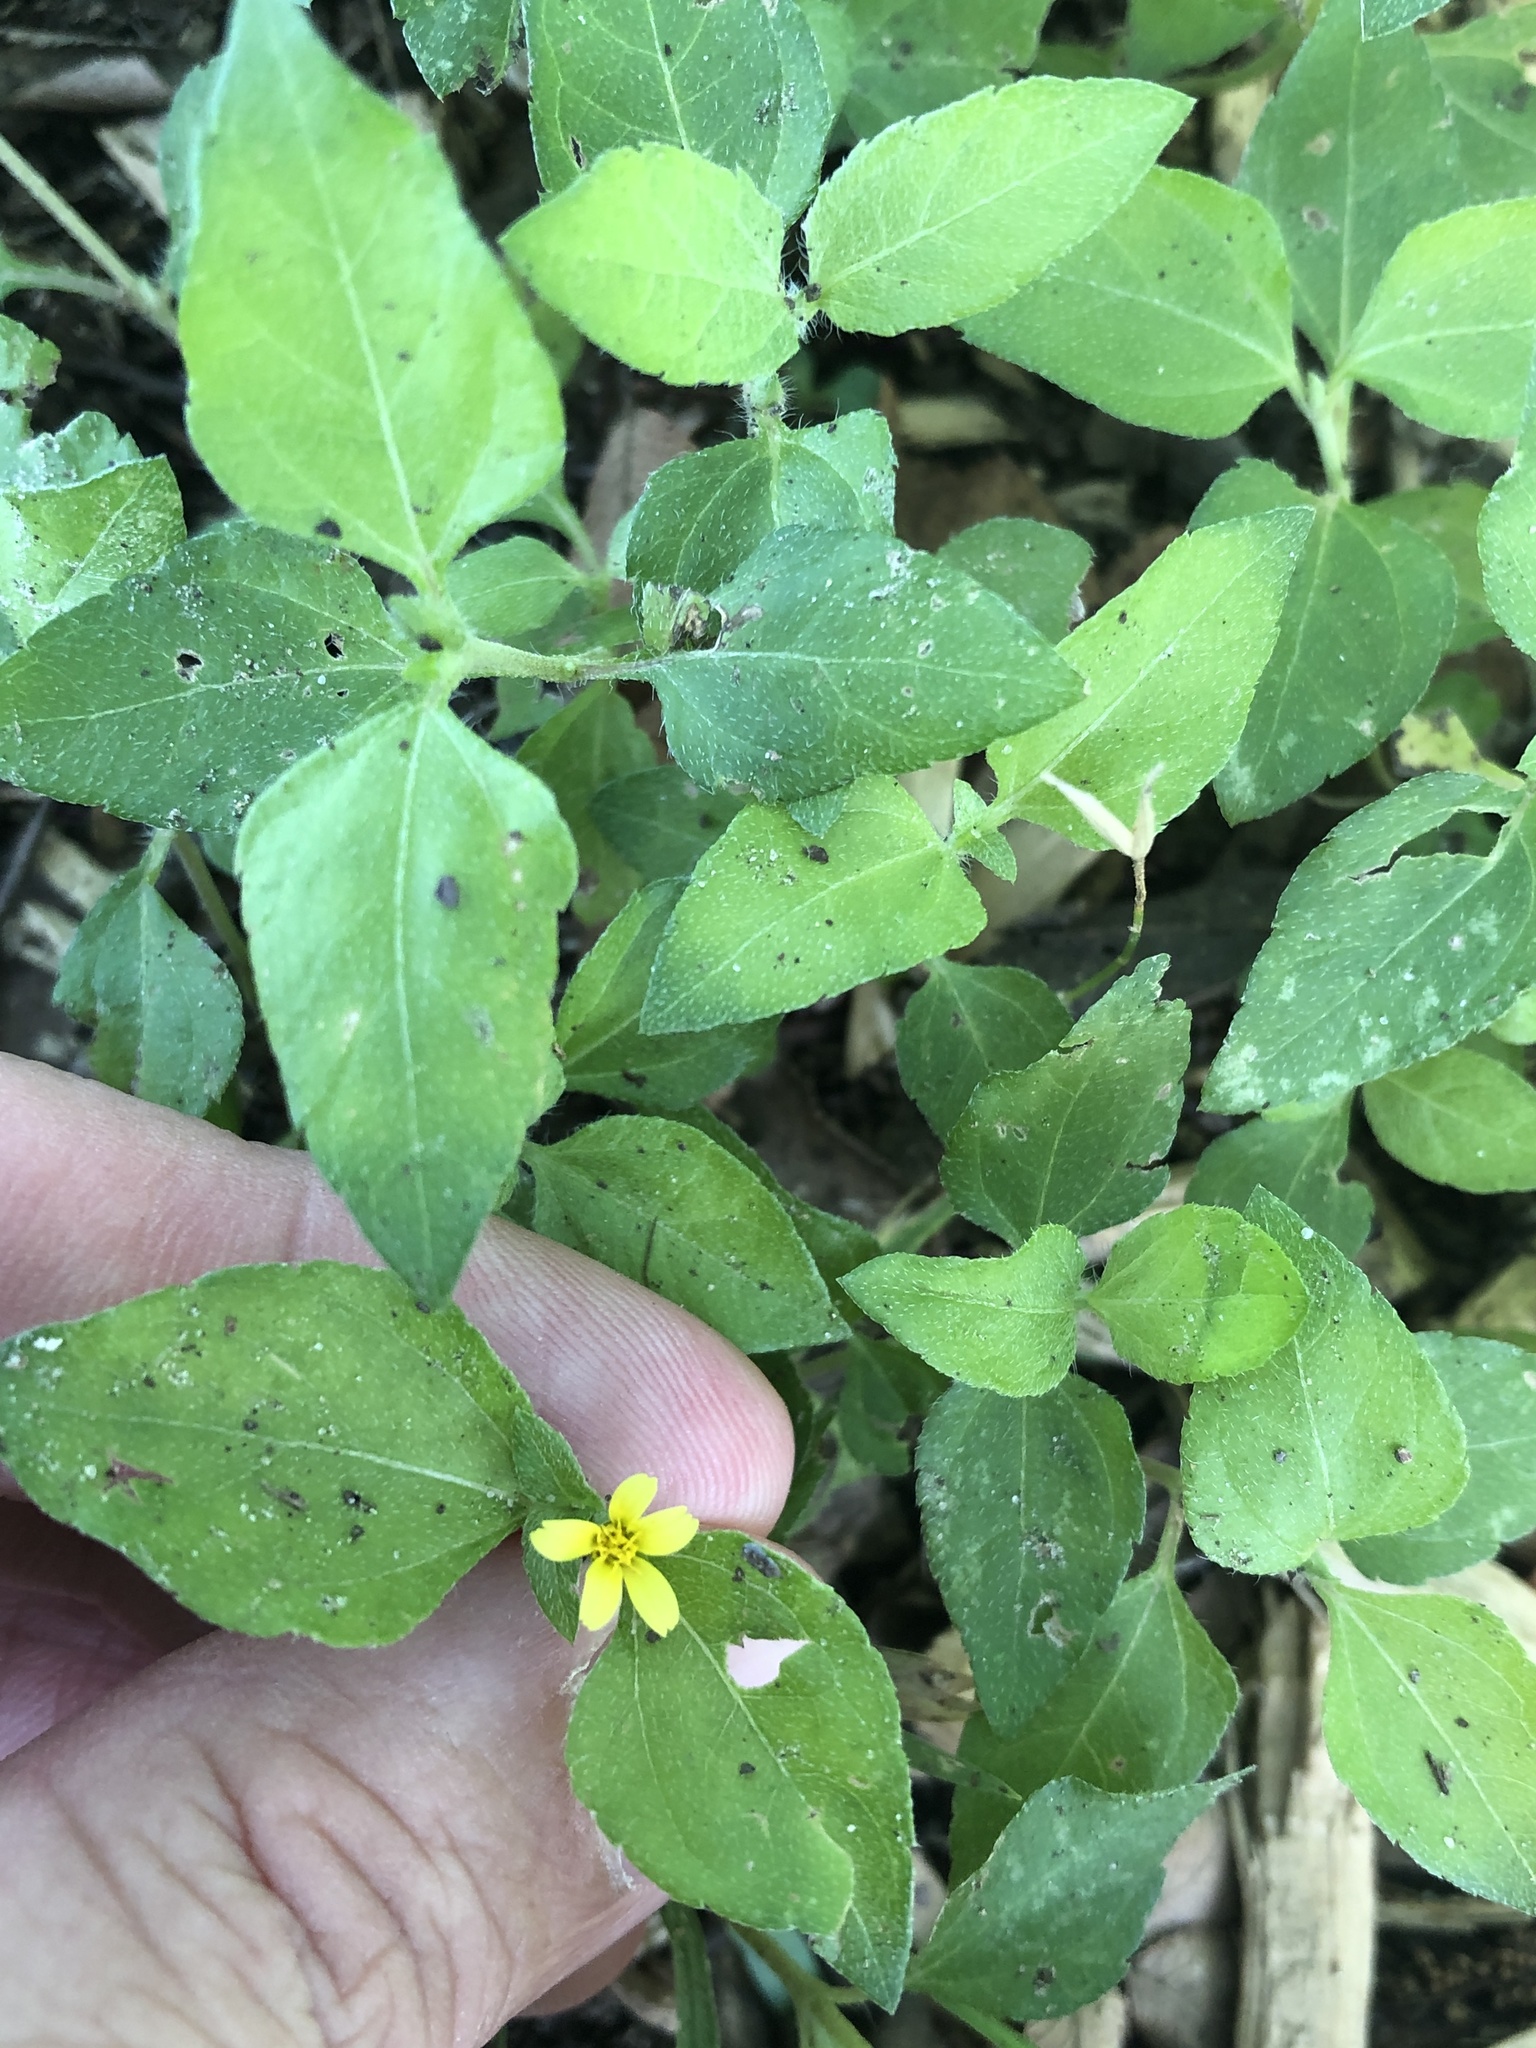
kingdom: Plantae
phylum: Tracheophyta
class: Magnoliopsida
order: Asterales
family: Asteraceae
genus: Calyptocarpus
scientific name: Calyptocarpus vialis
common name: Straggler daisy
